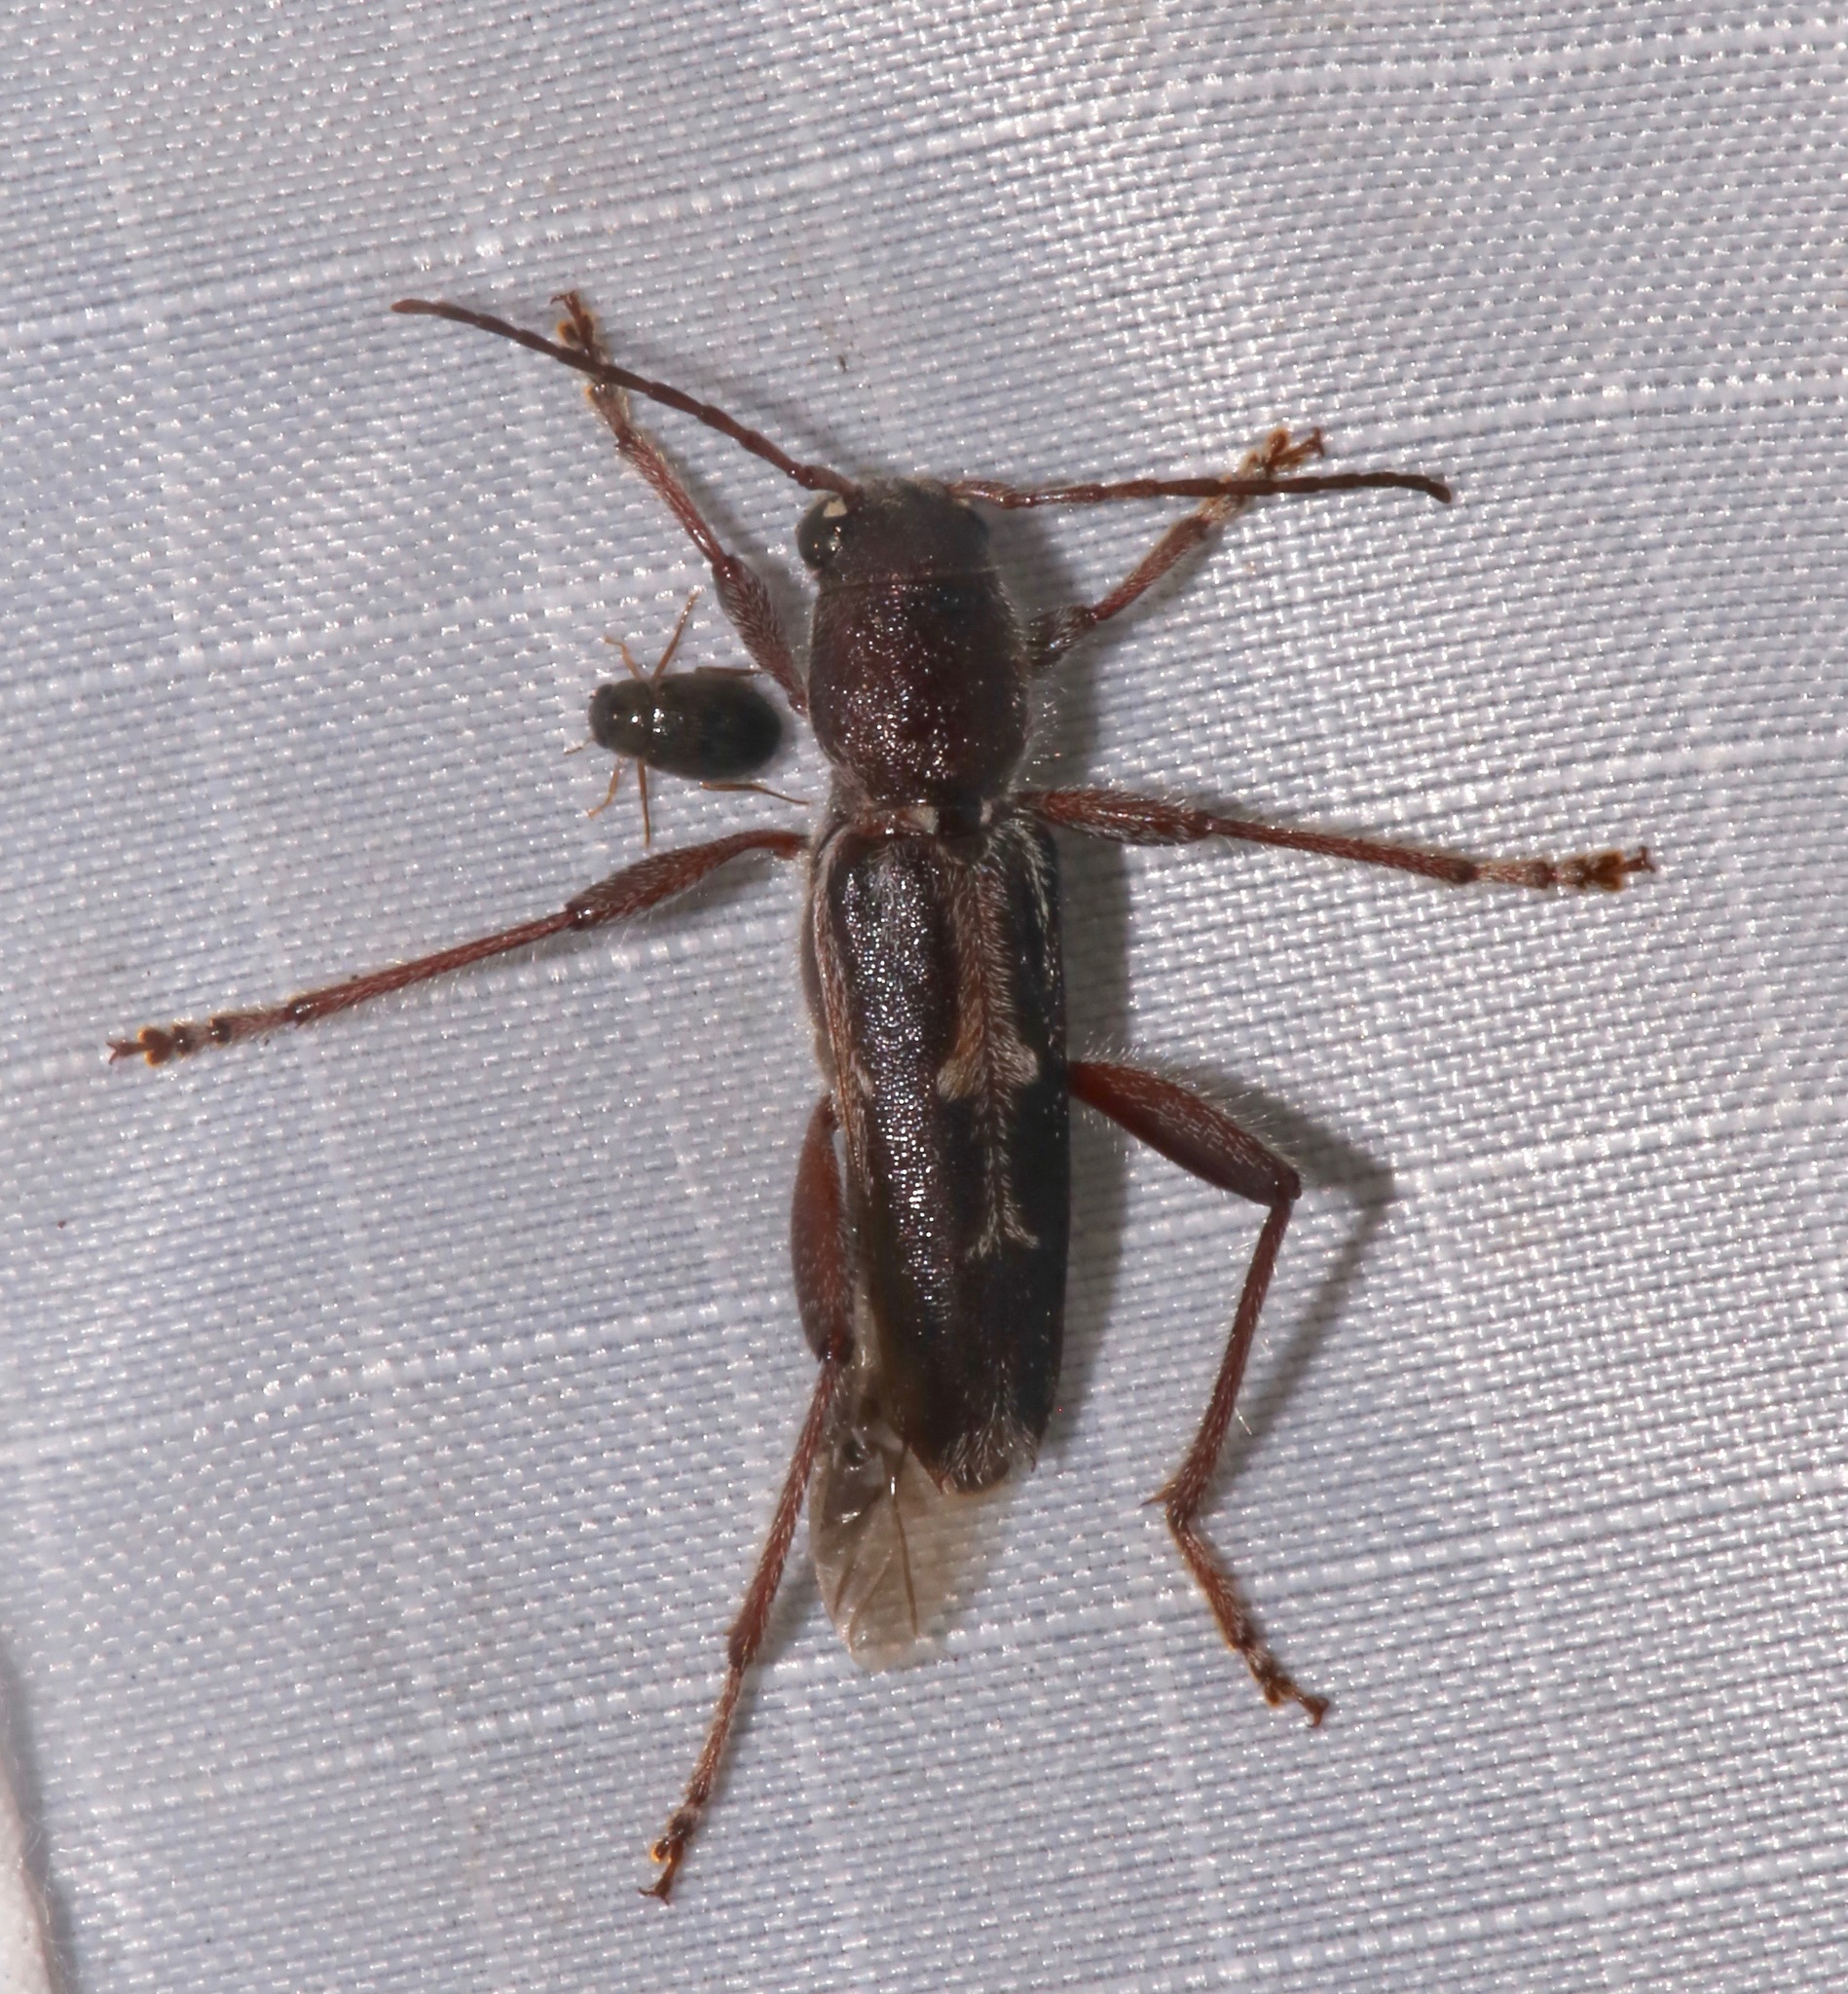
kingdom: Animalia
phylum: Arthropoda
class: Insecta
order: Coleoptera
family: Cerambycidae
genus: Xylotrechus
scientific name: Xylotrechus sagittatus
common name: Arrowhead borer
